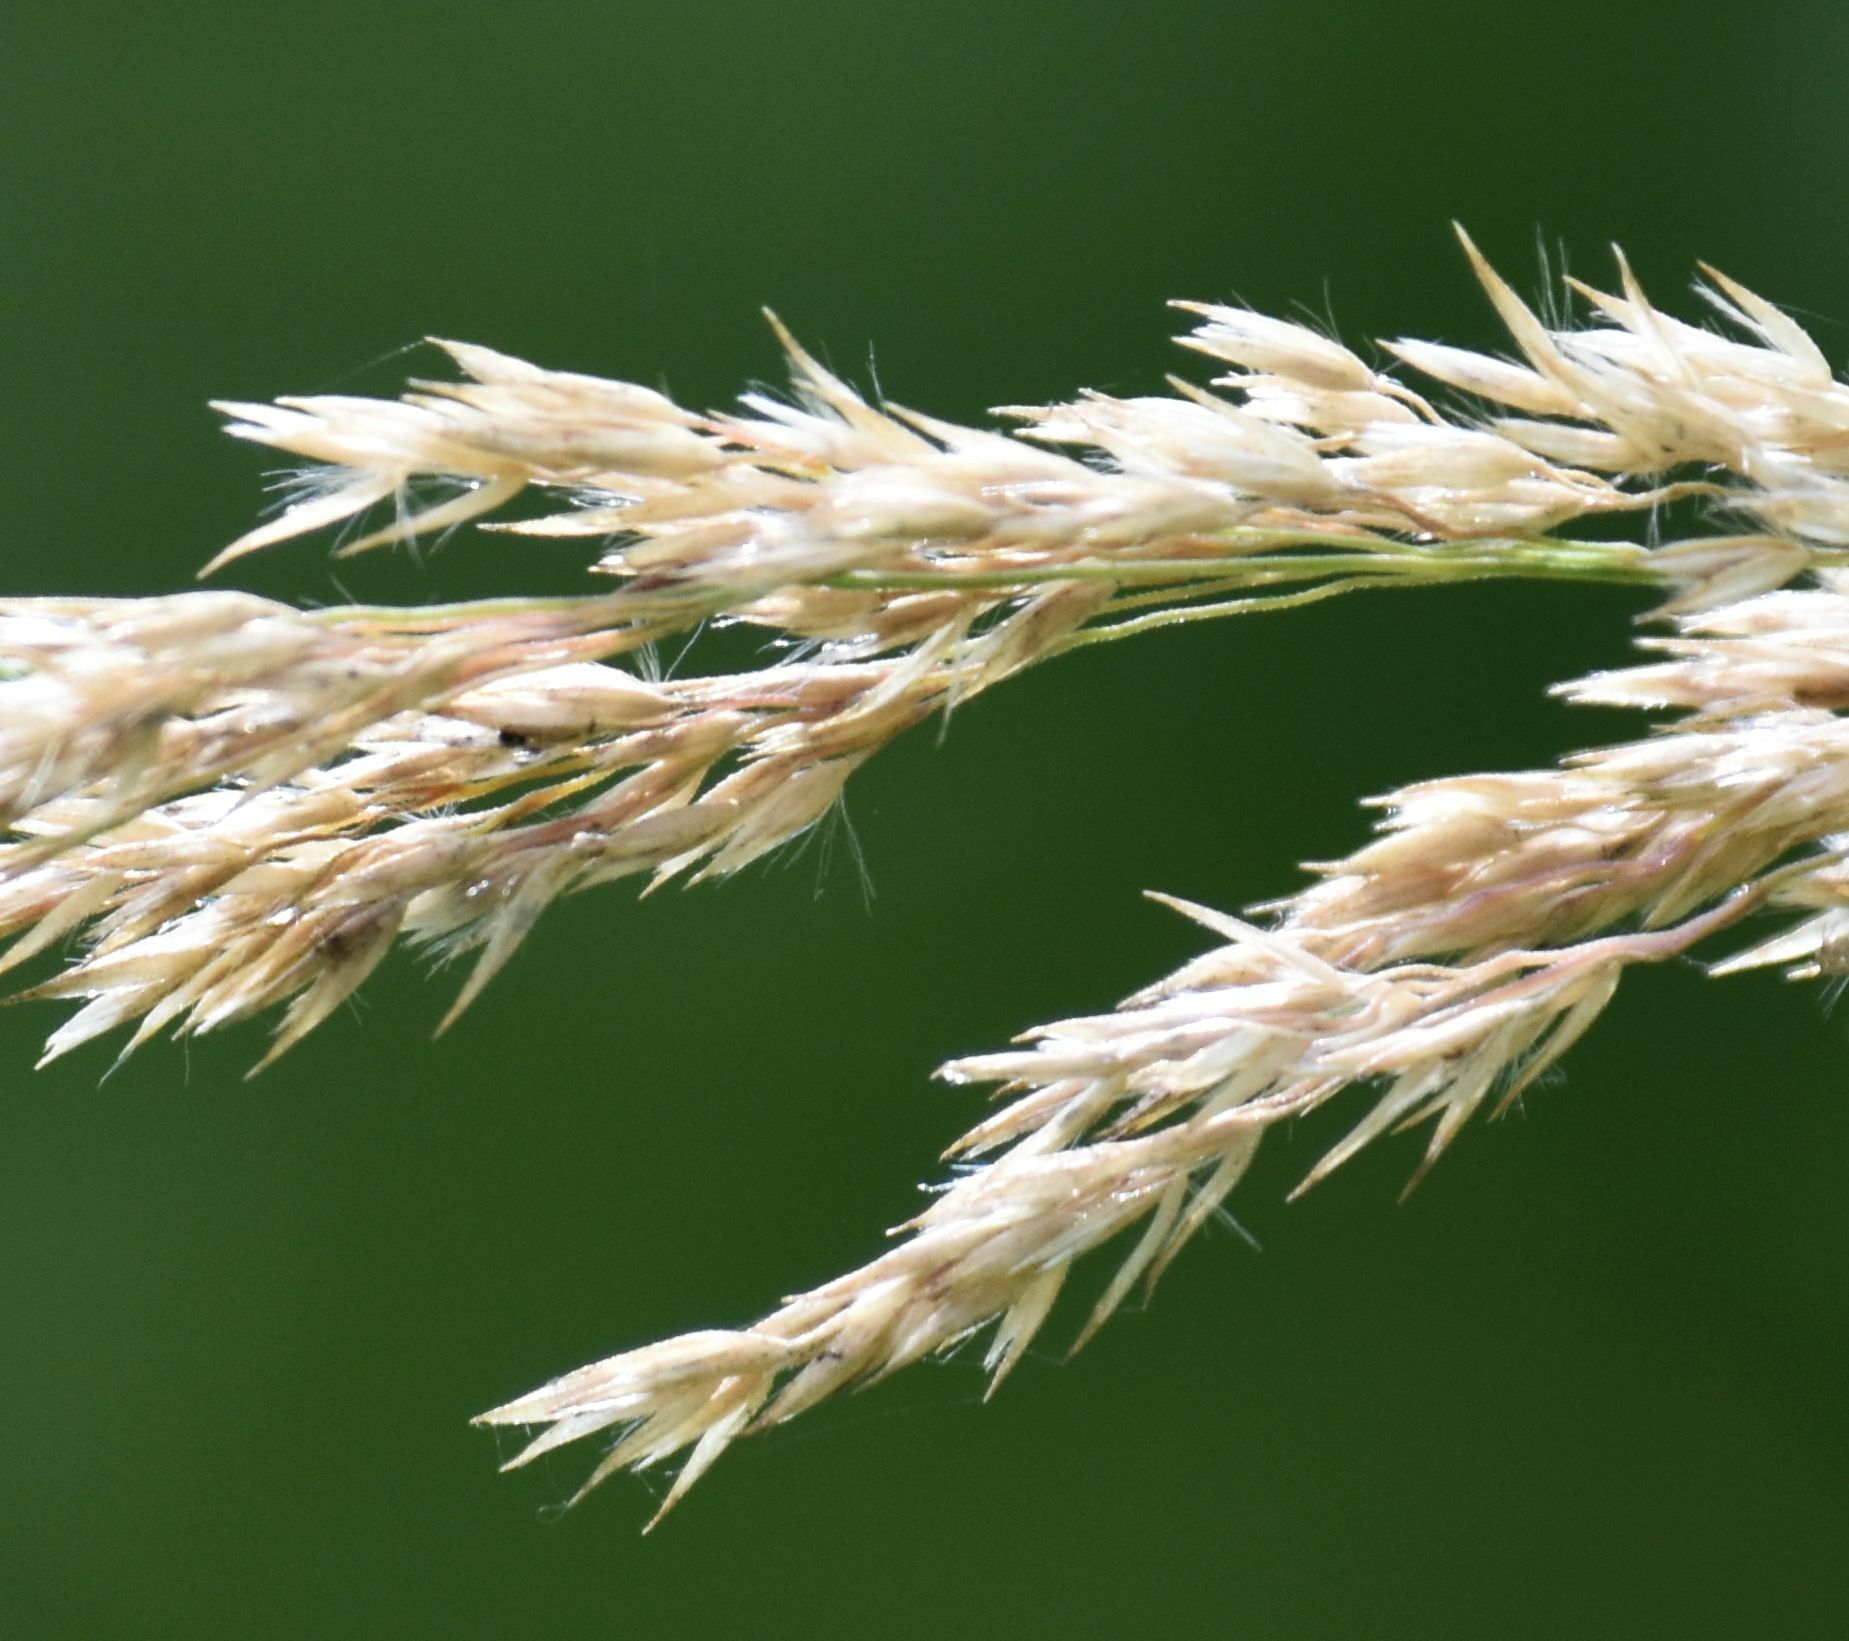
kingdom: Plantae
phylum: Tracheophyta
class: Liliopsida
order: Poales
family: Poaceae
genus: Calamagrostis
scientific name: Calamagrostis canadensis
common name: Canada bluejoint
